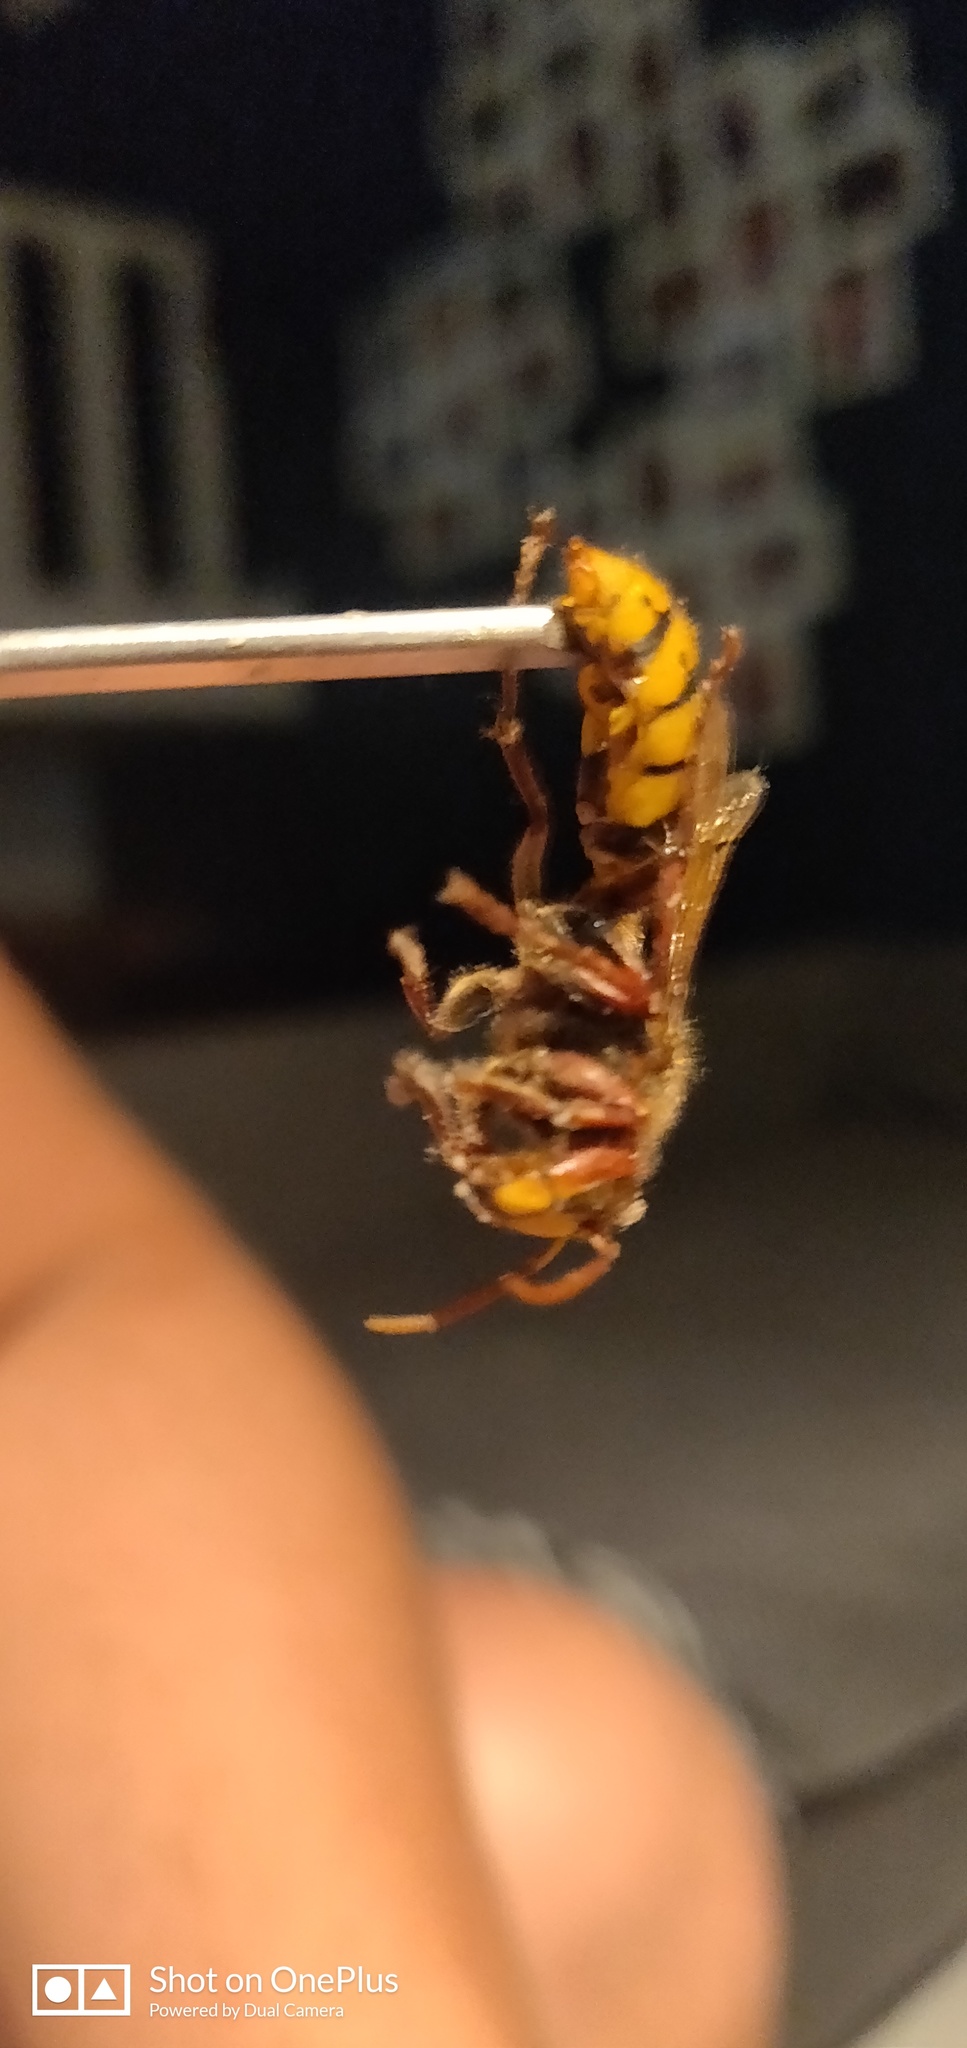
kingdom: Animalia
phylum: Arthropoda
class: Insecta
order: Hymenoptera
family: Vespidae
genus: Vespa
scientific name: Vespa crabro
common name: Hornet
